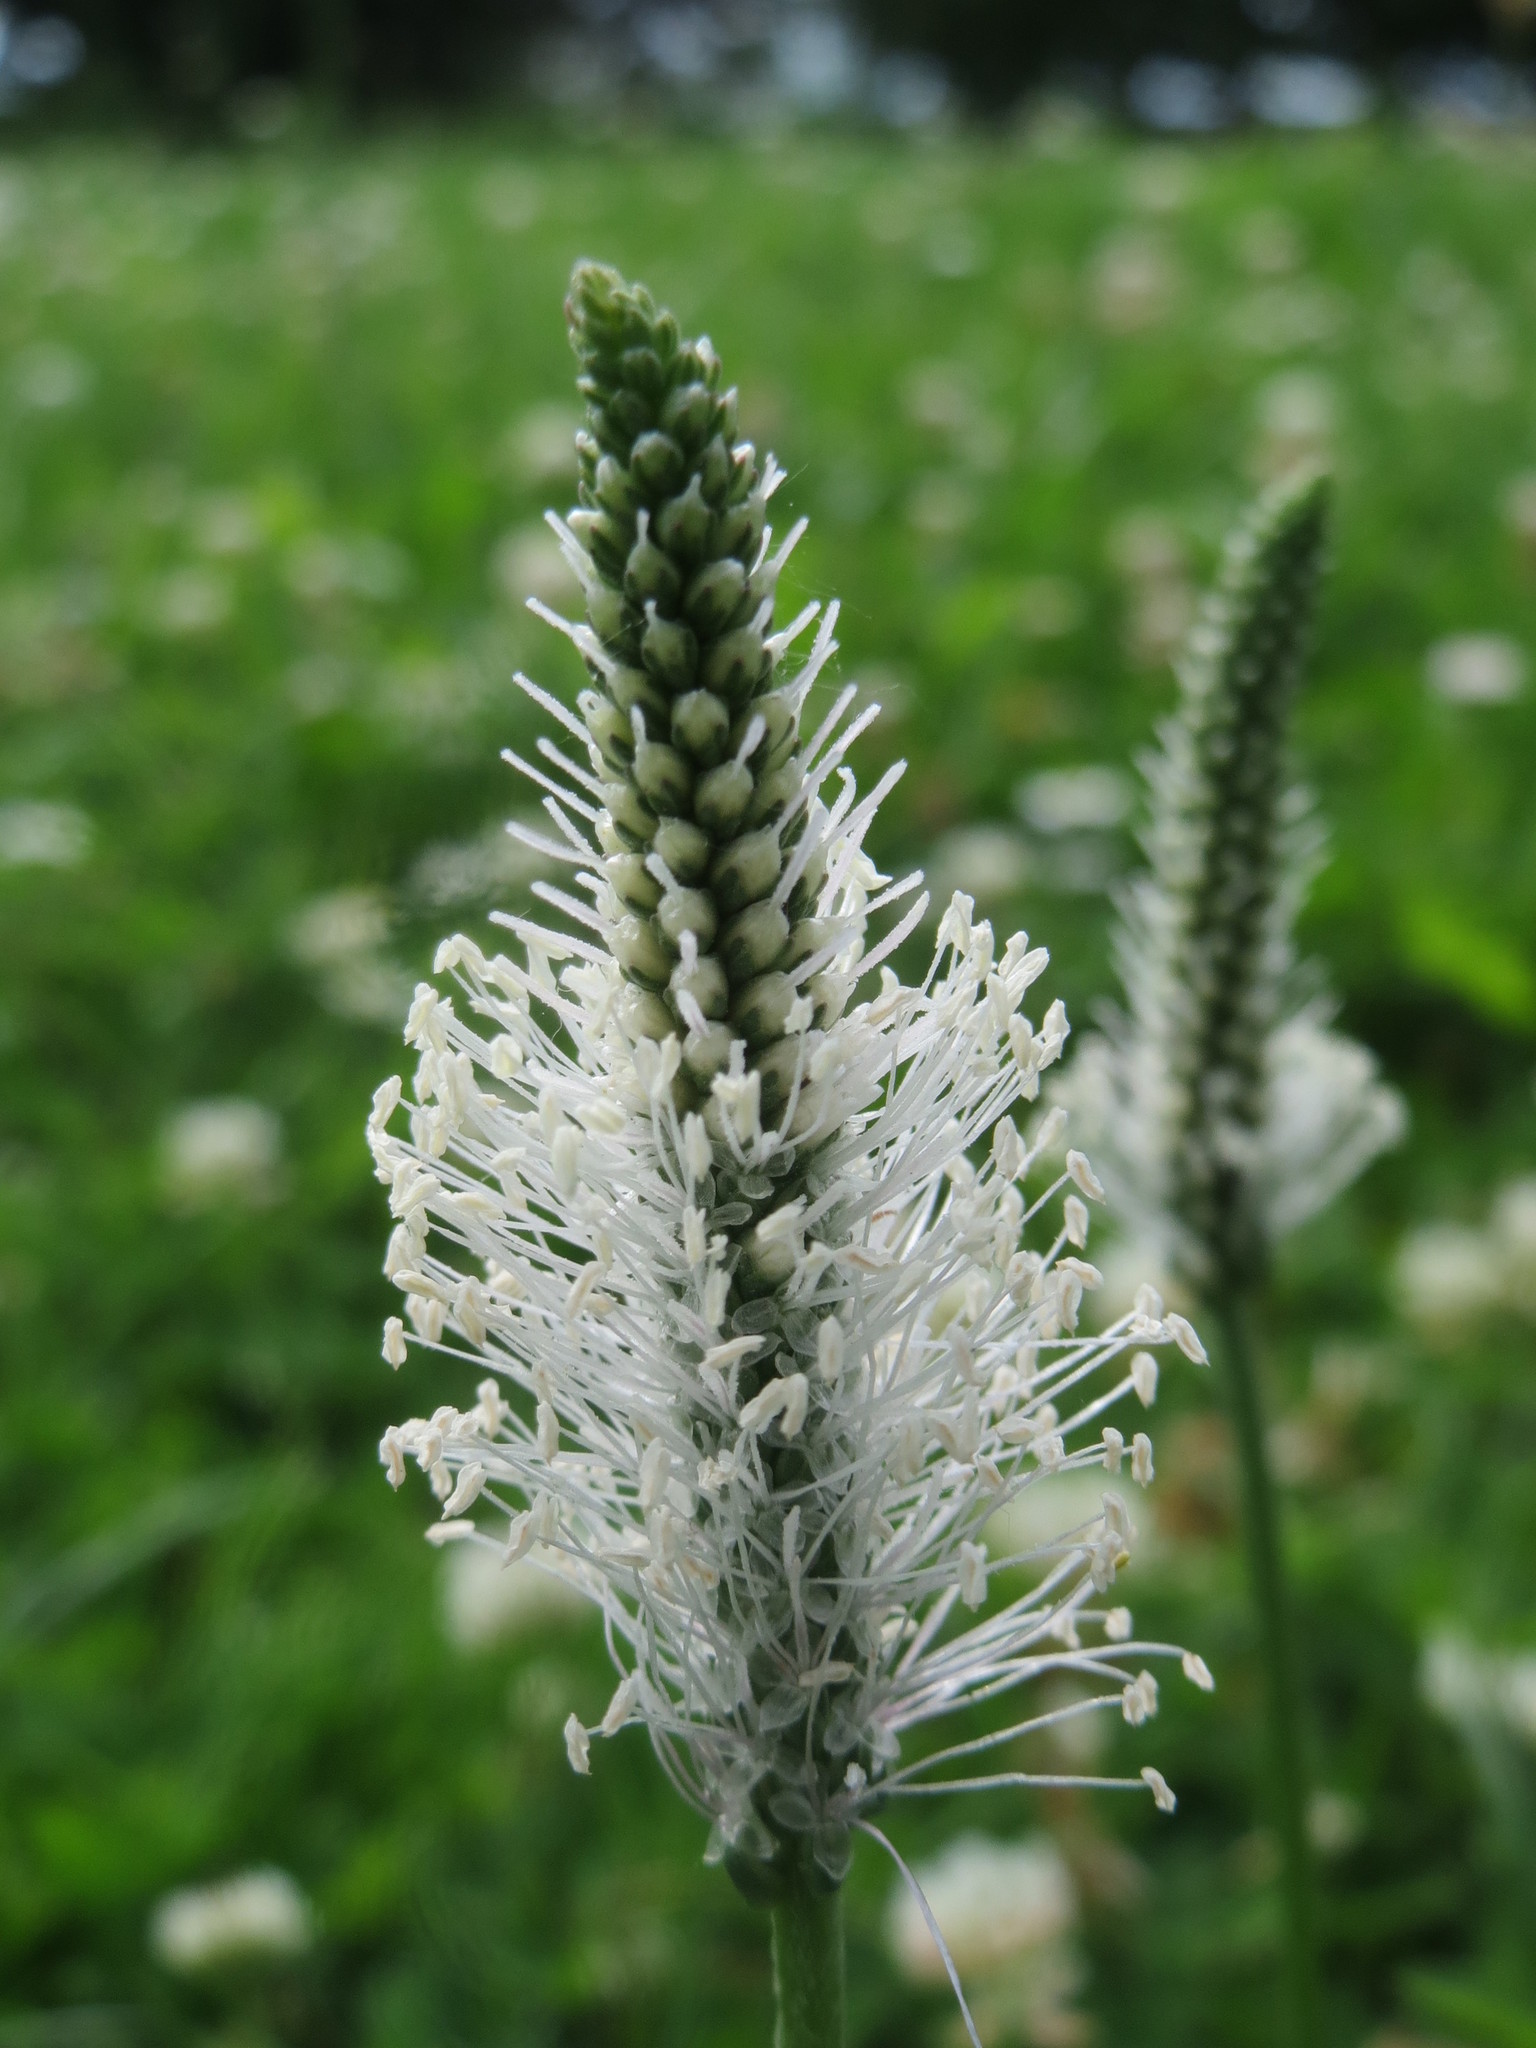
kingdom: Plantae
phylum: Tracheophyta
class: Magnoliopsida
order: Lamiales
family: Plantaginaceae
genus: Plantago
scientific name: Plantago media
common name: Hoary plantain
